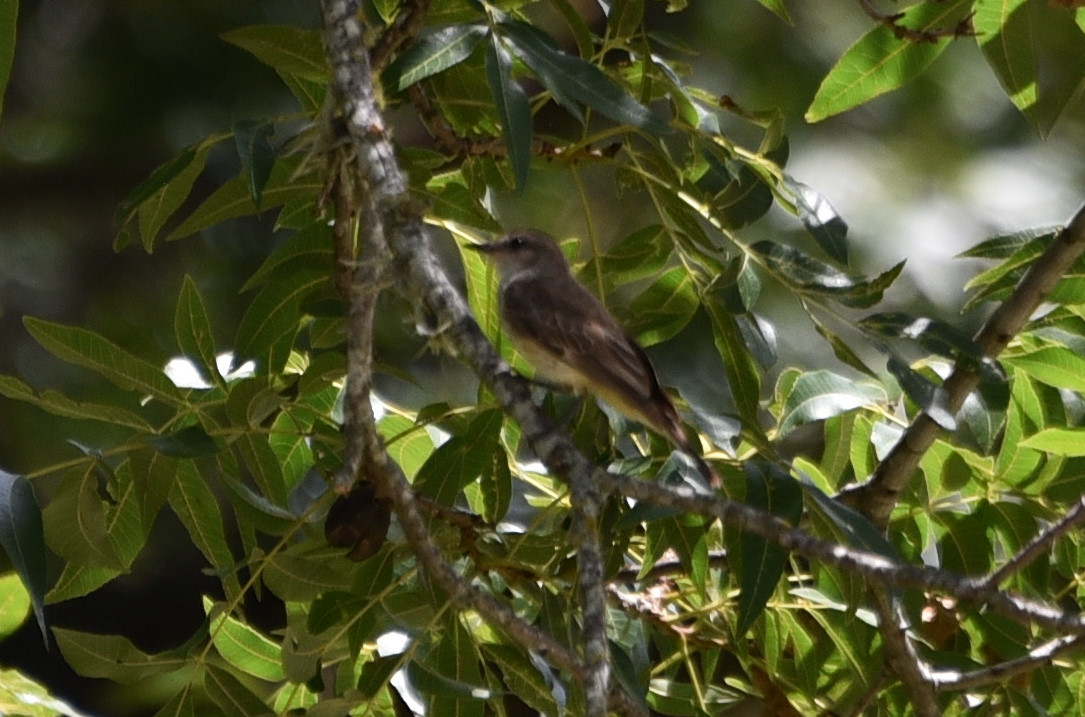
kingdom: Animalia
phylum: Chordata
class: Aves
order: Passeriformes
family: Tyrannidae
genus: Pyrocephalus
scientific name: Pyrocephalus rubinus
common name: Vermilion flycatcher
